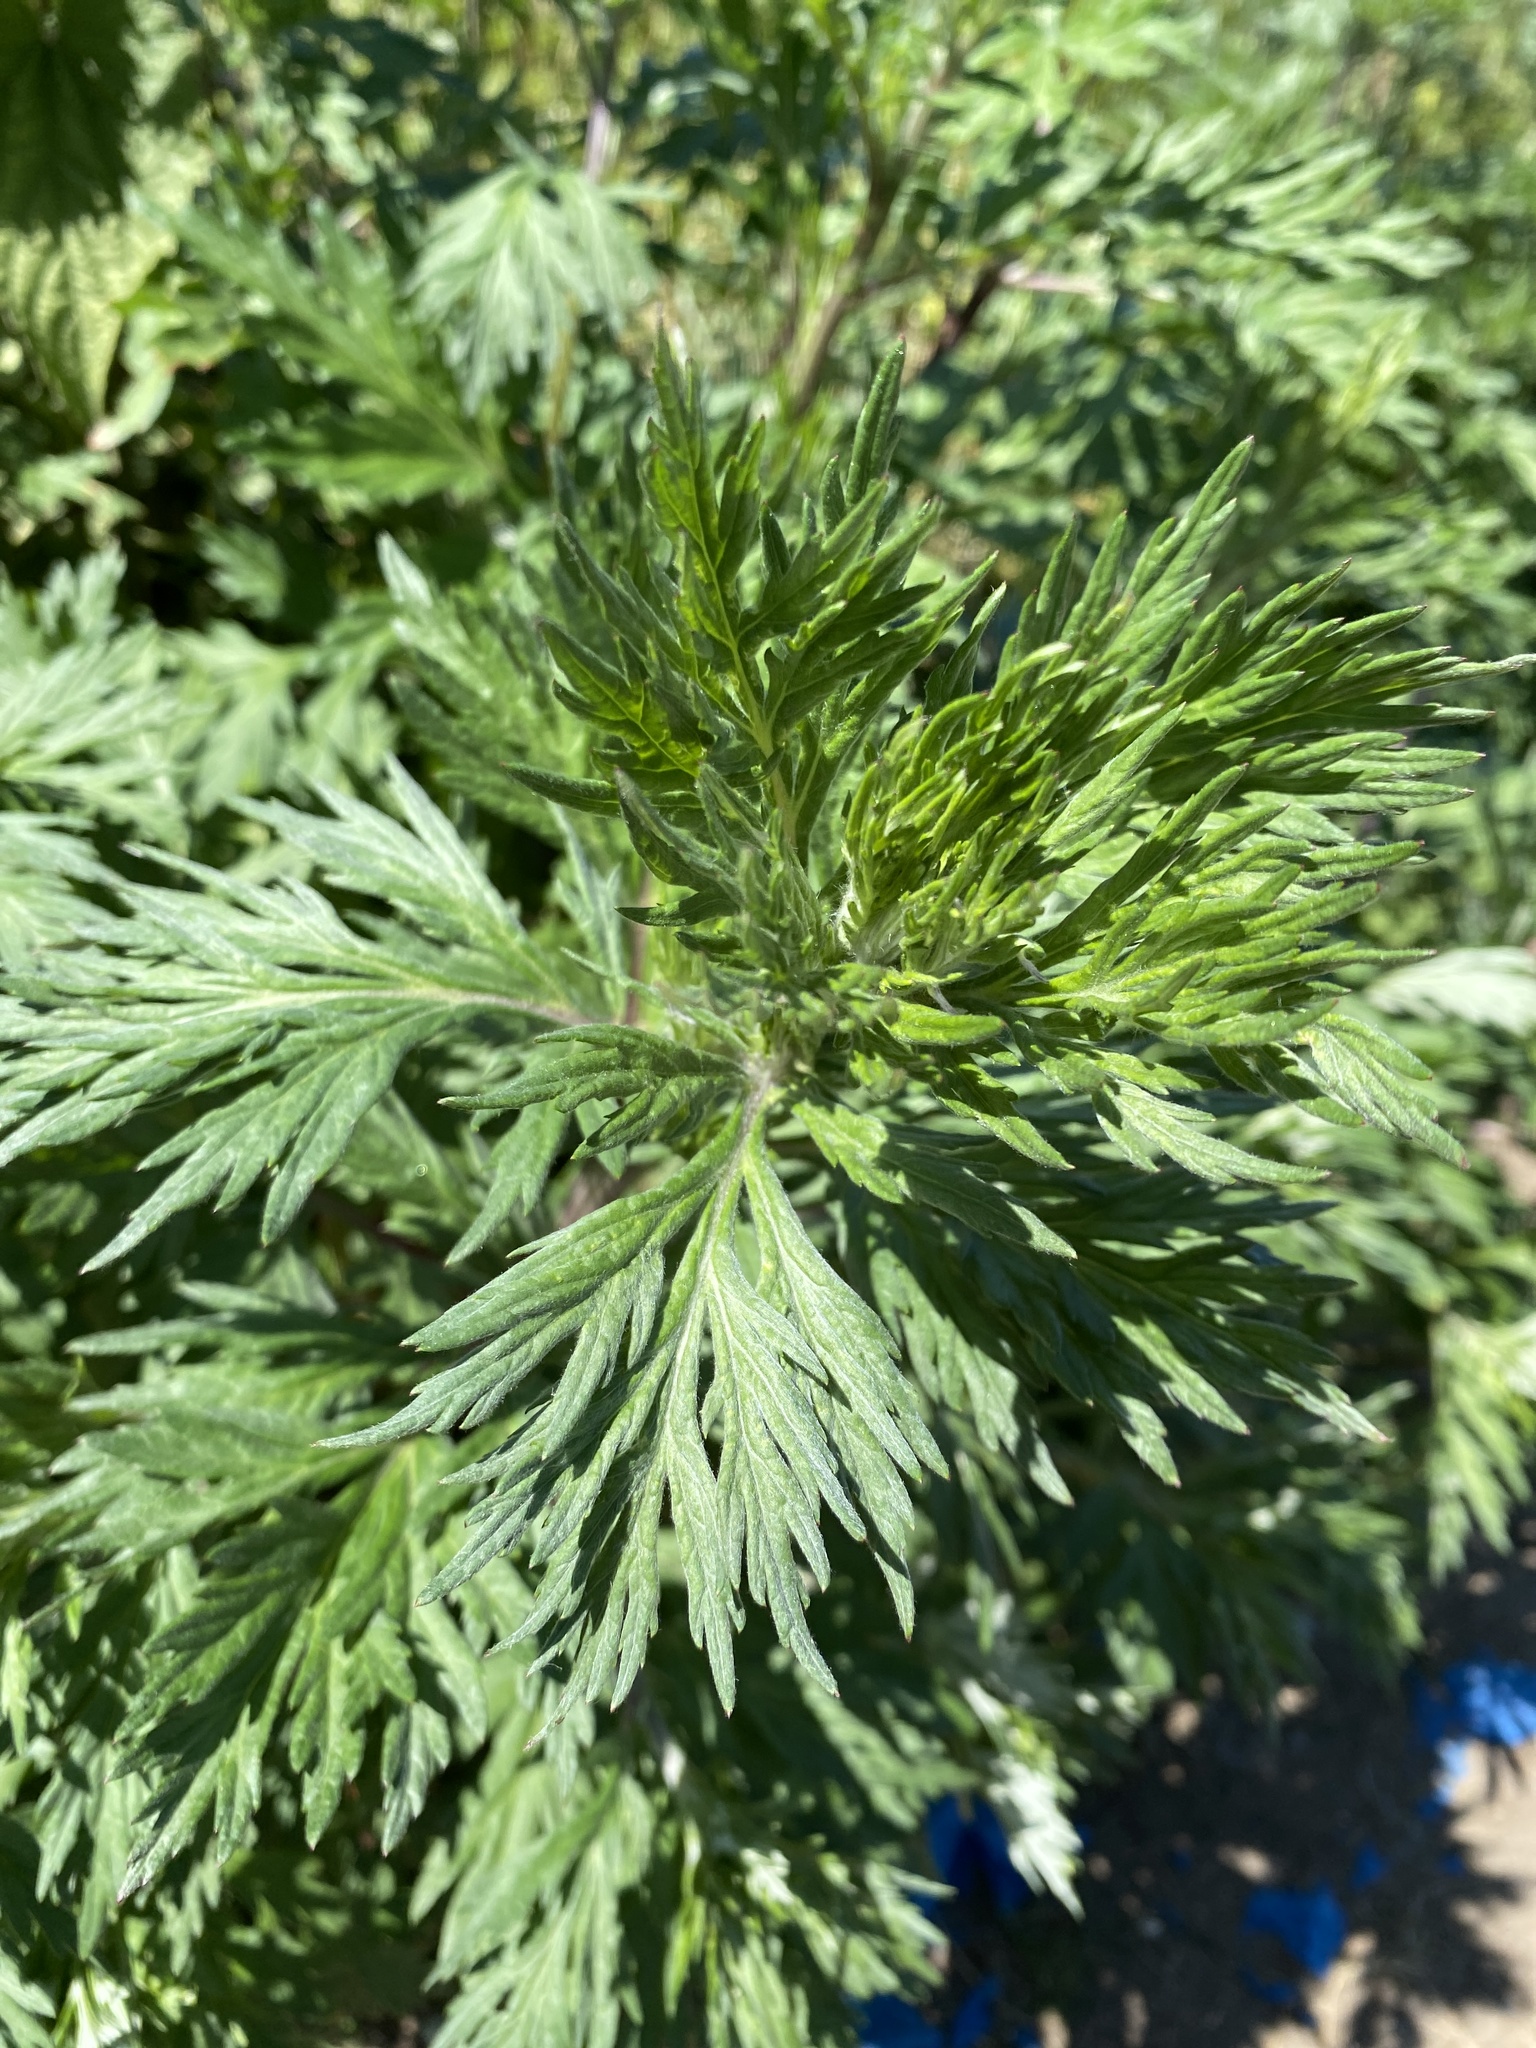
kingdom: Plantae
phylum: Tracheophyta
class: Magnoliopsida
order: Asterales
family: Asteraceae
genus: Artemisia
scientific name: Artemisia vulgaris
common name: Mugwort
